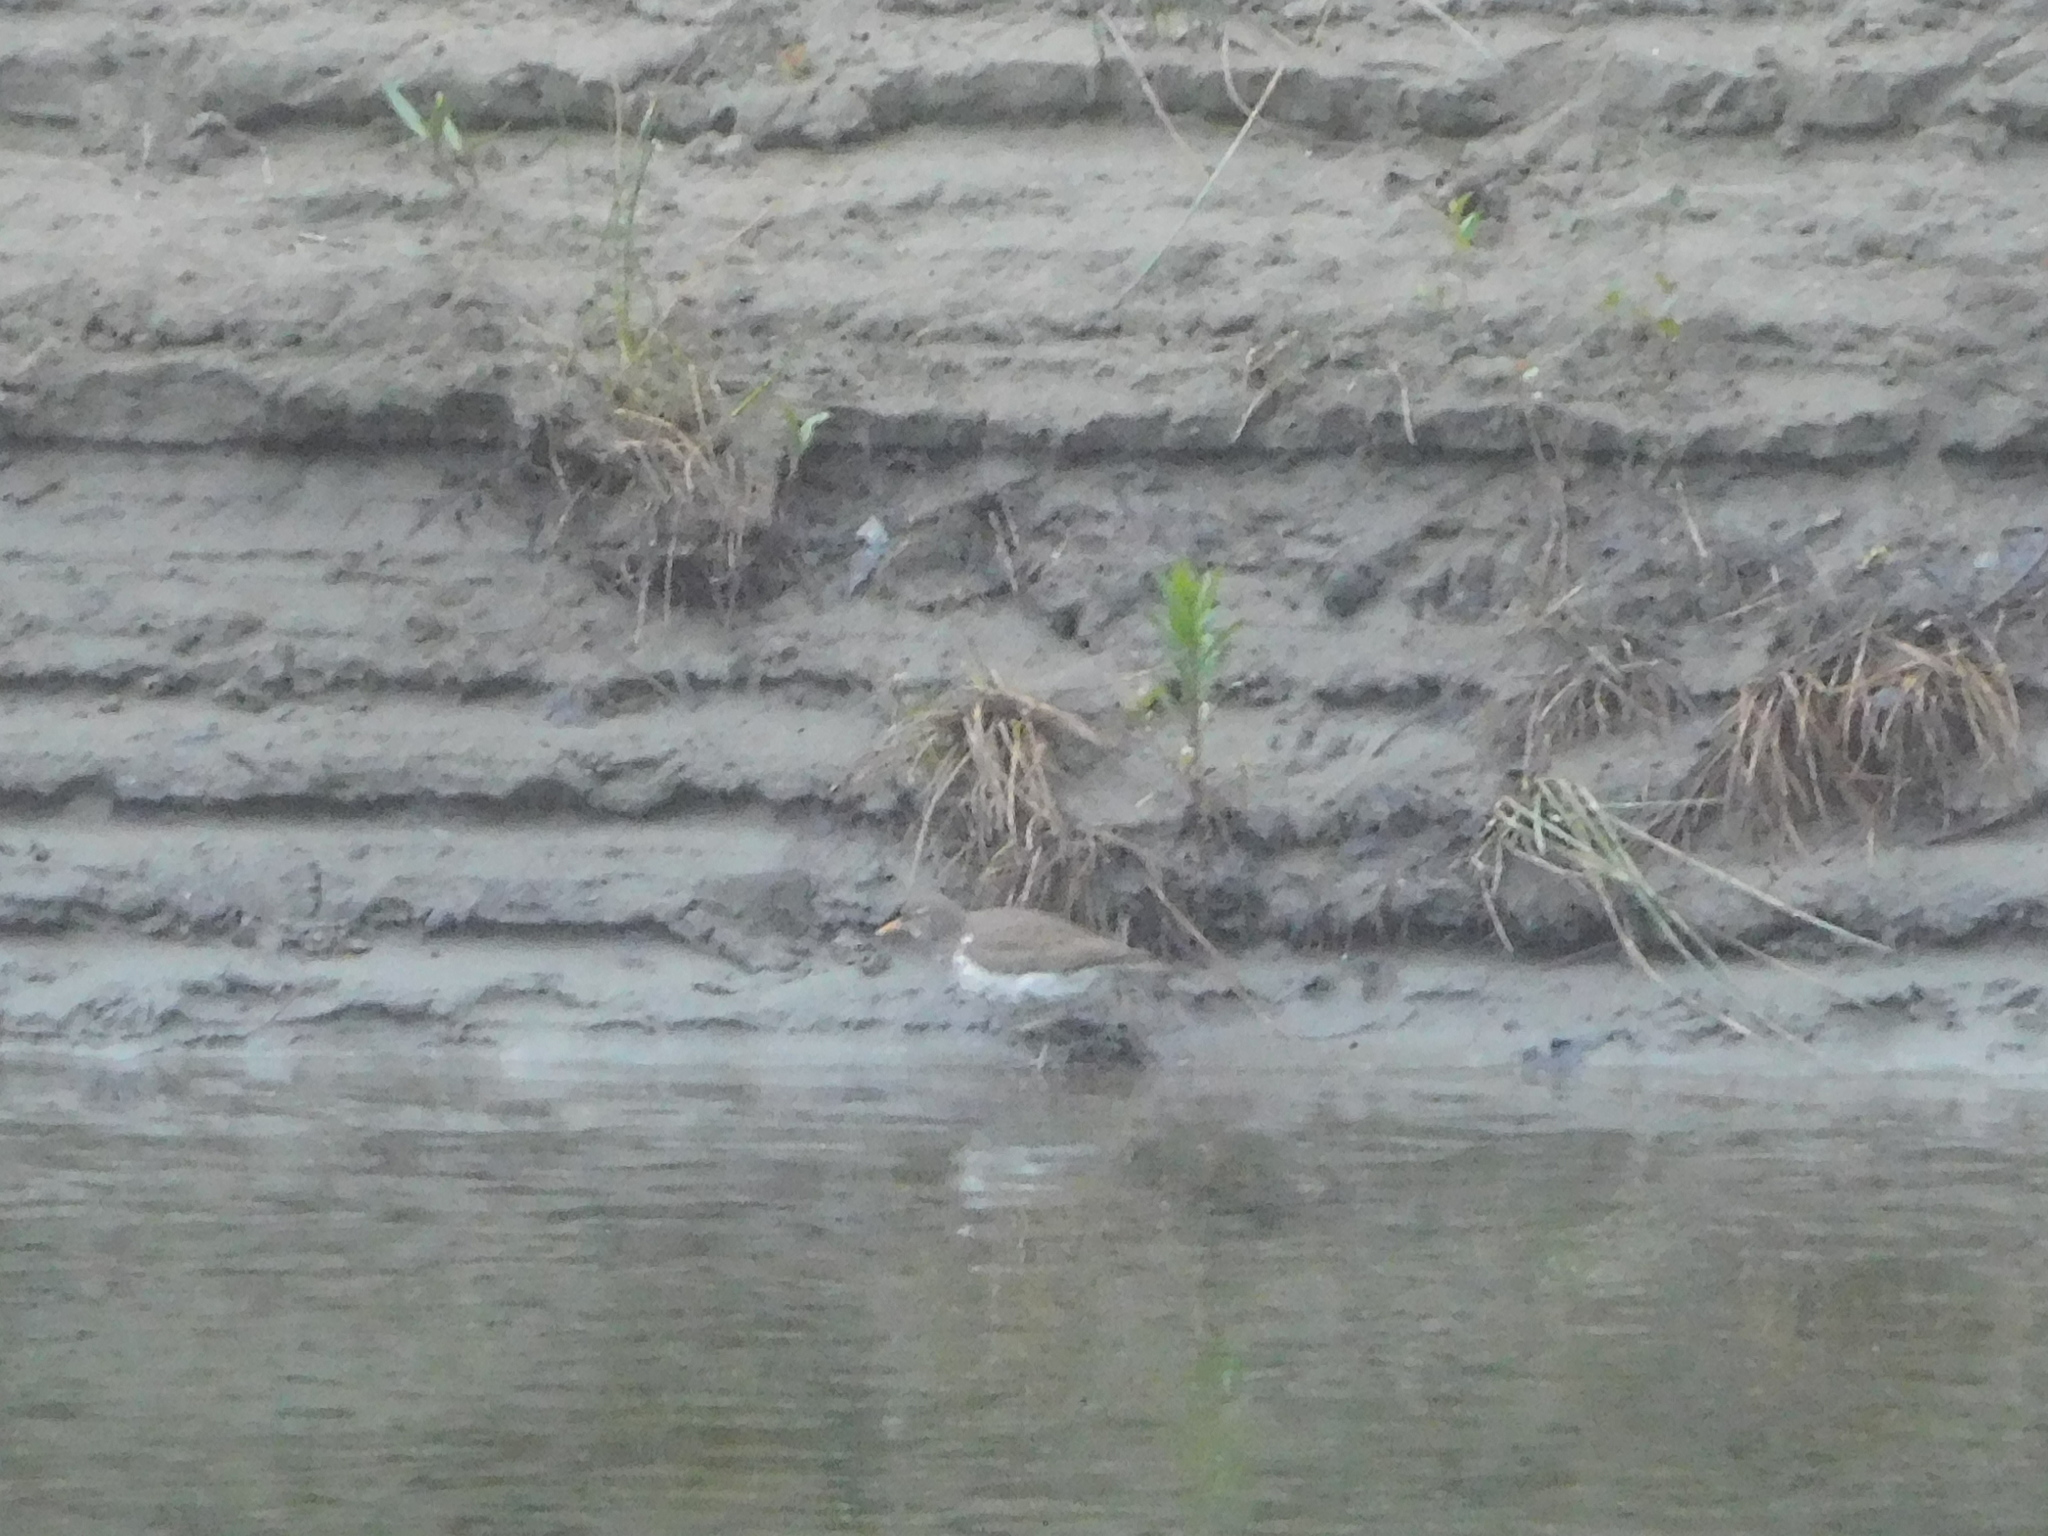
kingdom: Animalia
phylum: Chordata
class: Aves
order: Charadriiformes
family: Scolopacidae
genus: Actitis
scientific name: Actitis macularius
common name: Spotted sandpiper
